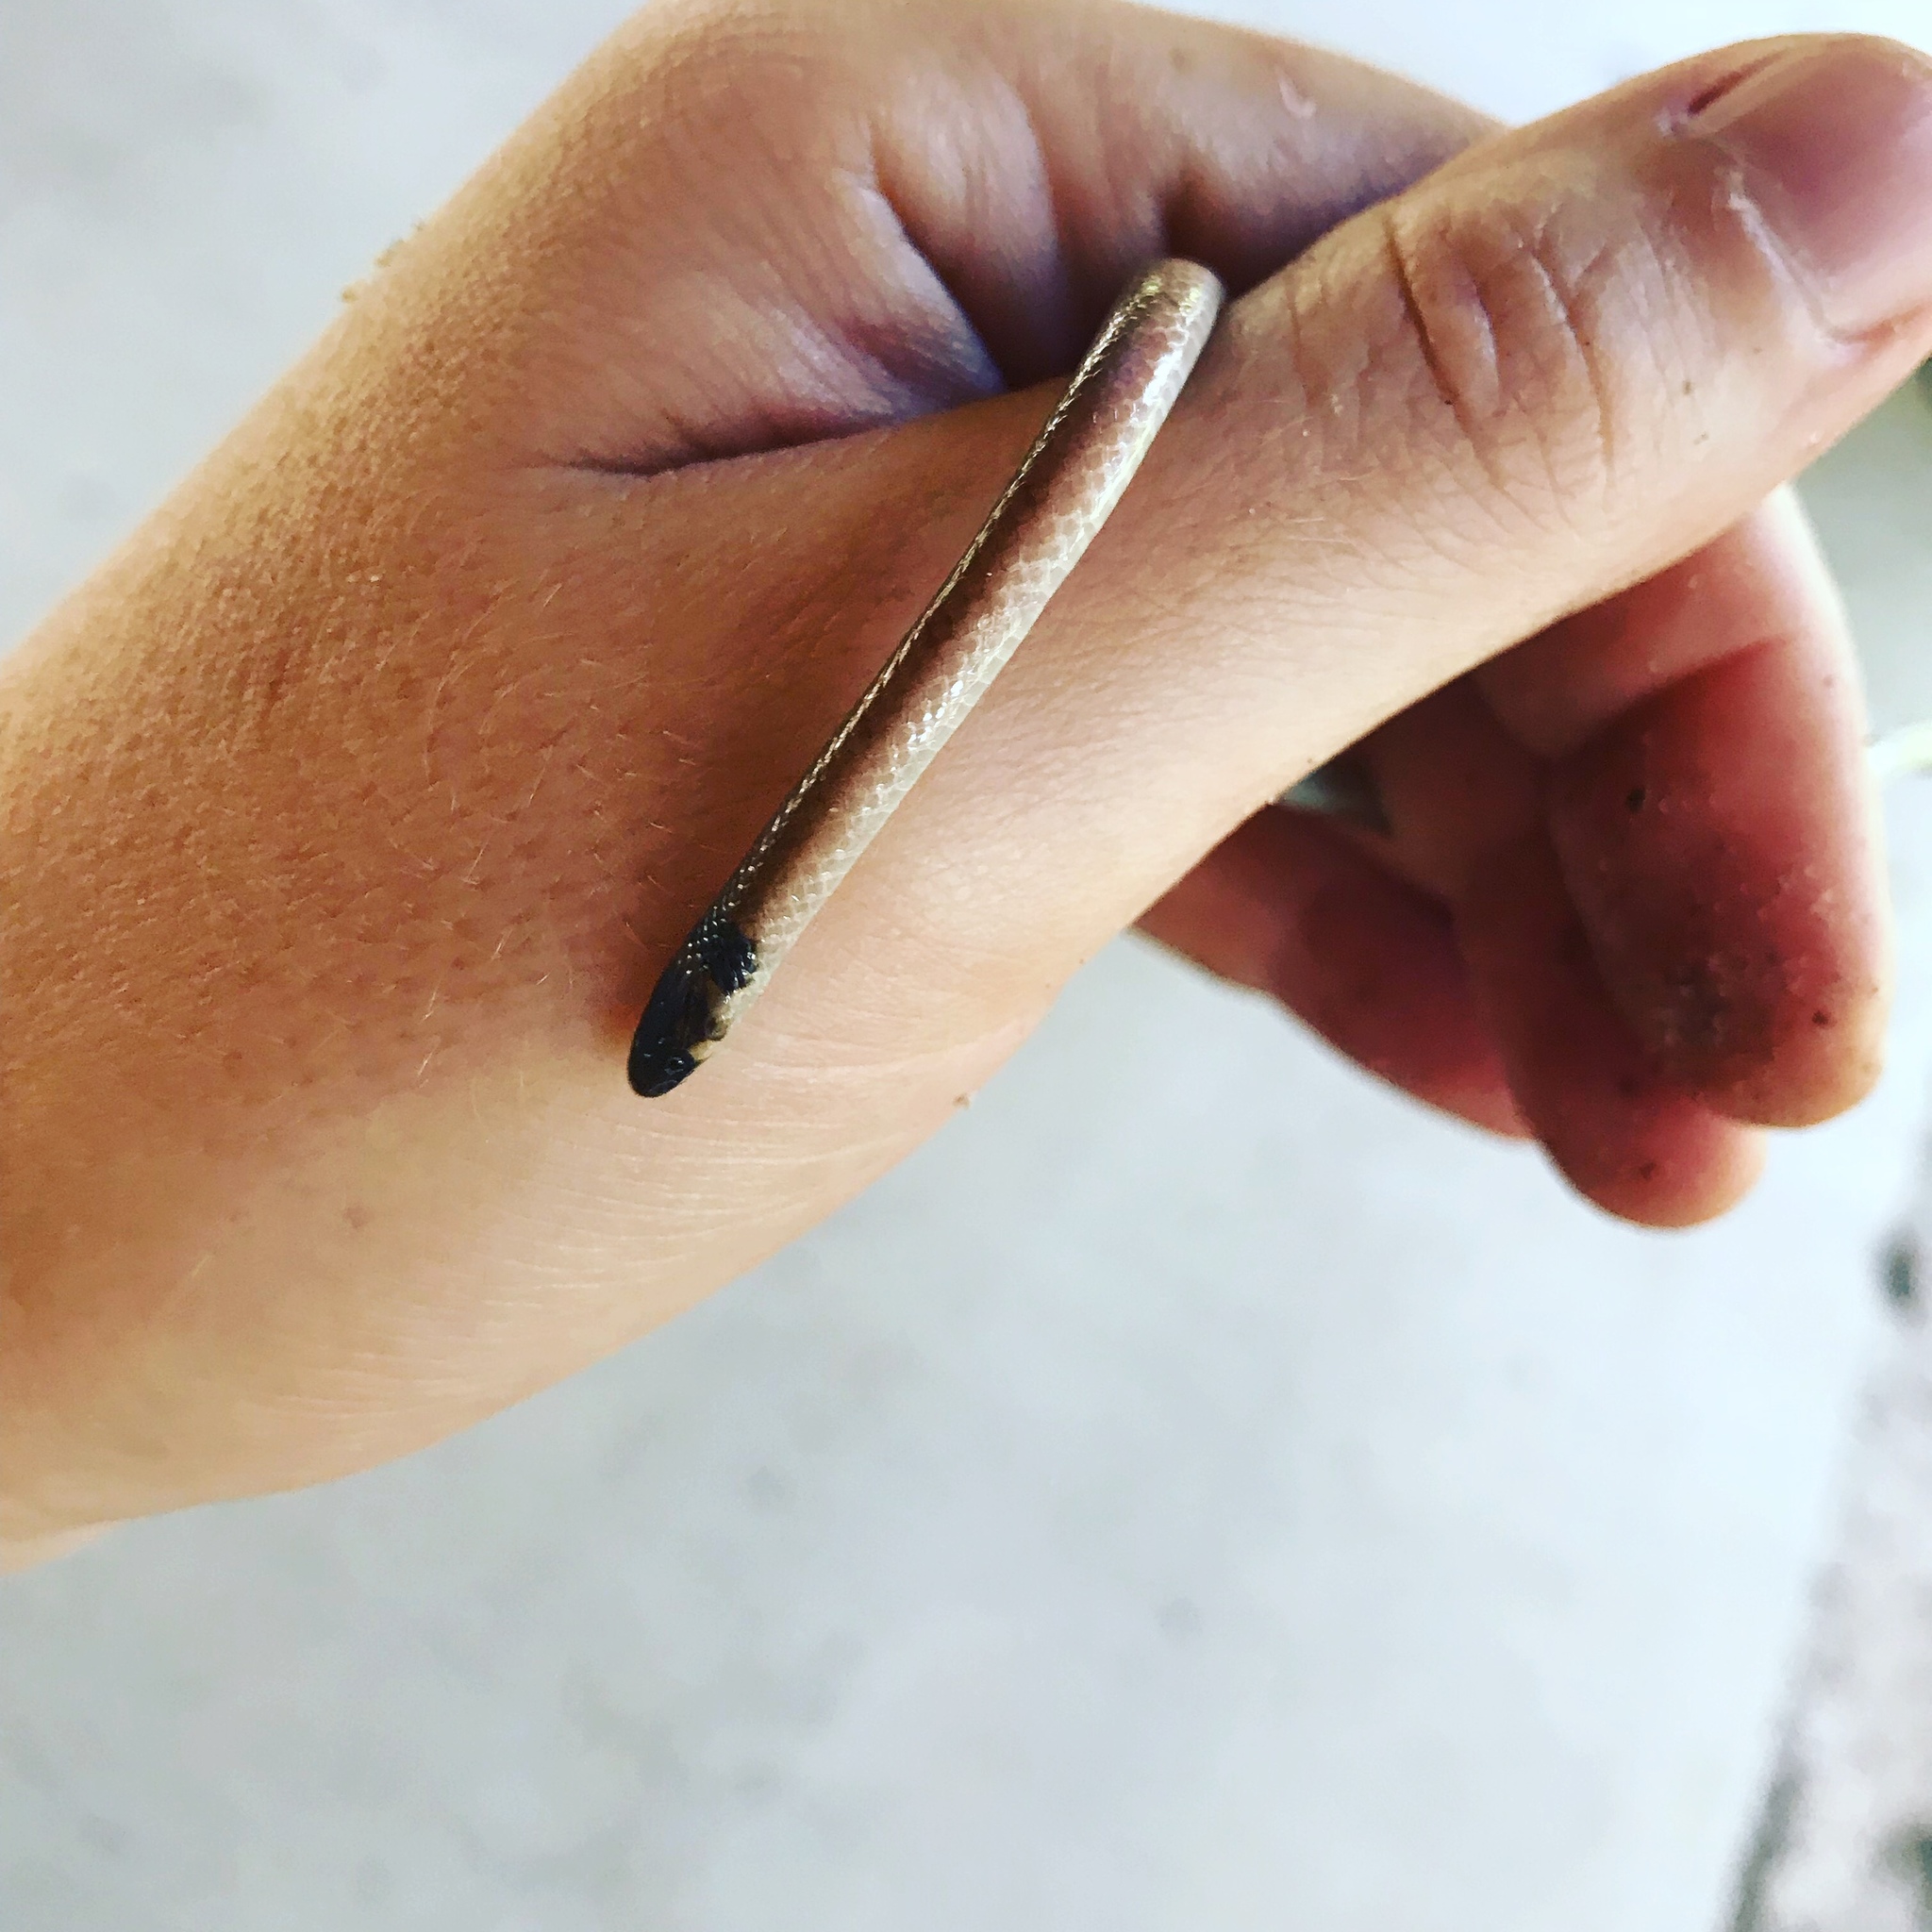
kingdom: Animalia
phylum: Chordata
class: Squamata
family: Colubridae
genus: Tantilla
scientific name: Tantilla coronata
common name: Southeastern crowned snake
